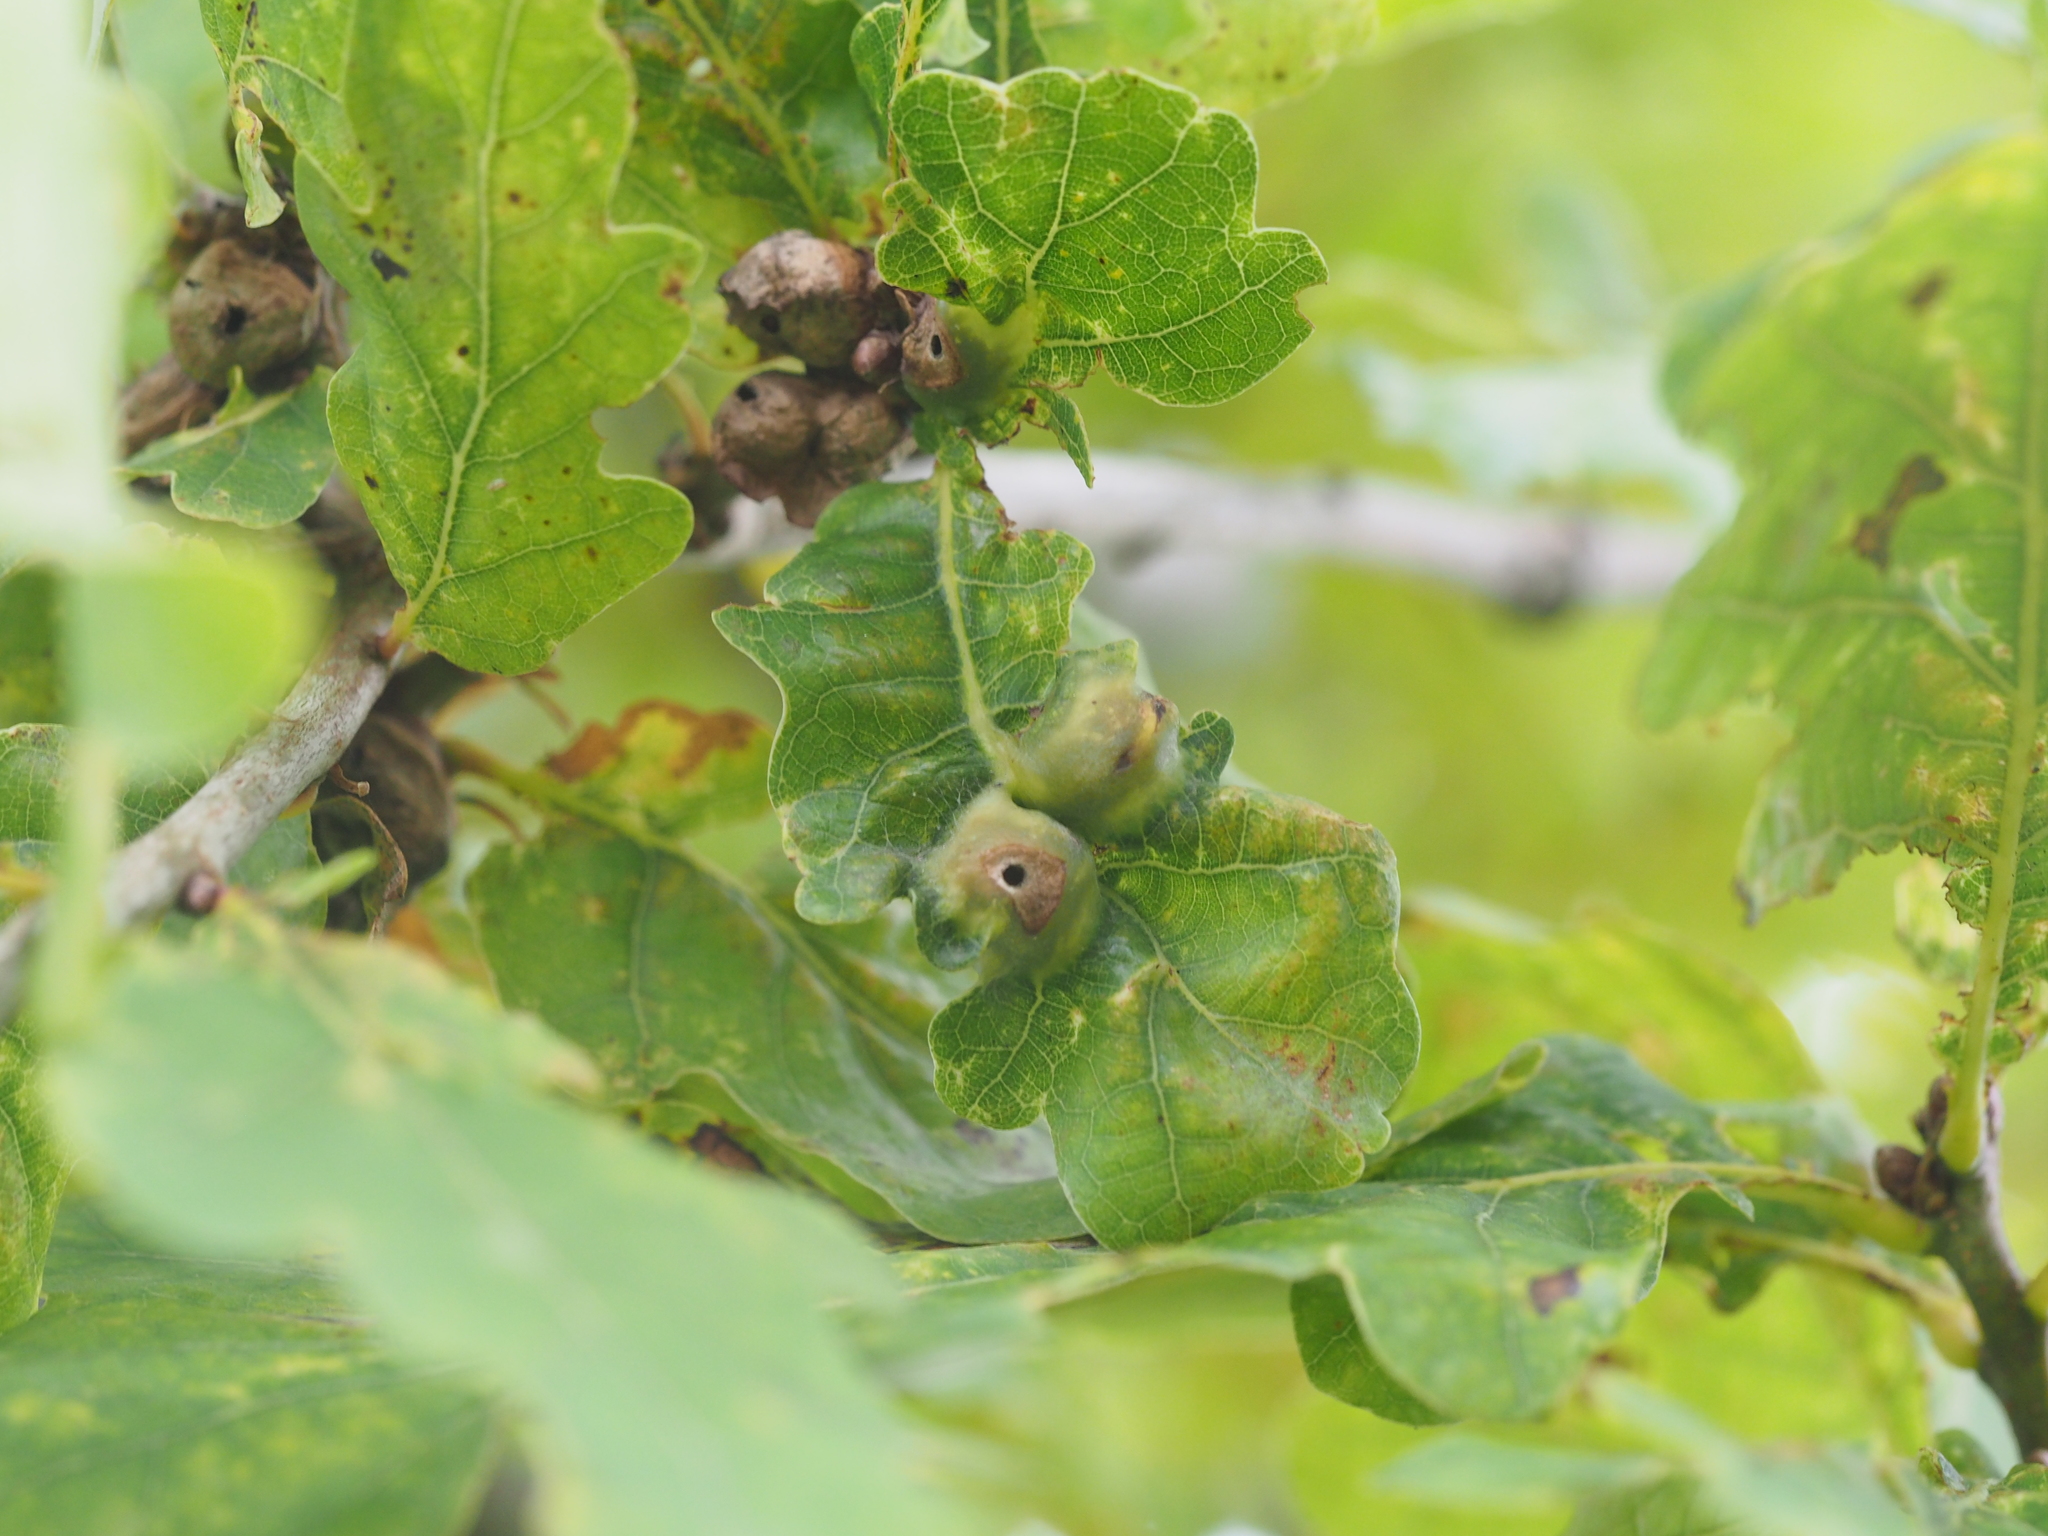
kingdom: Animalia
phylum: Arthropoda
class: Insecta
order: Hymenoptera
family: Cynipidae
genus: Andricus
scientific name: Andricus curvator
